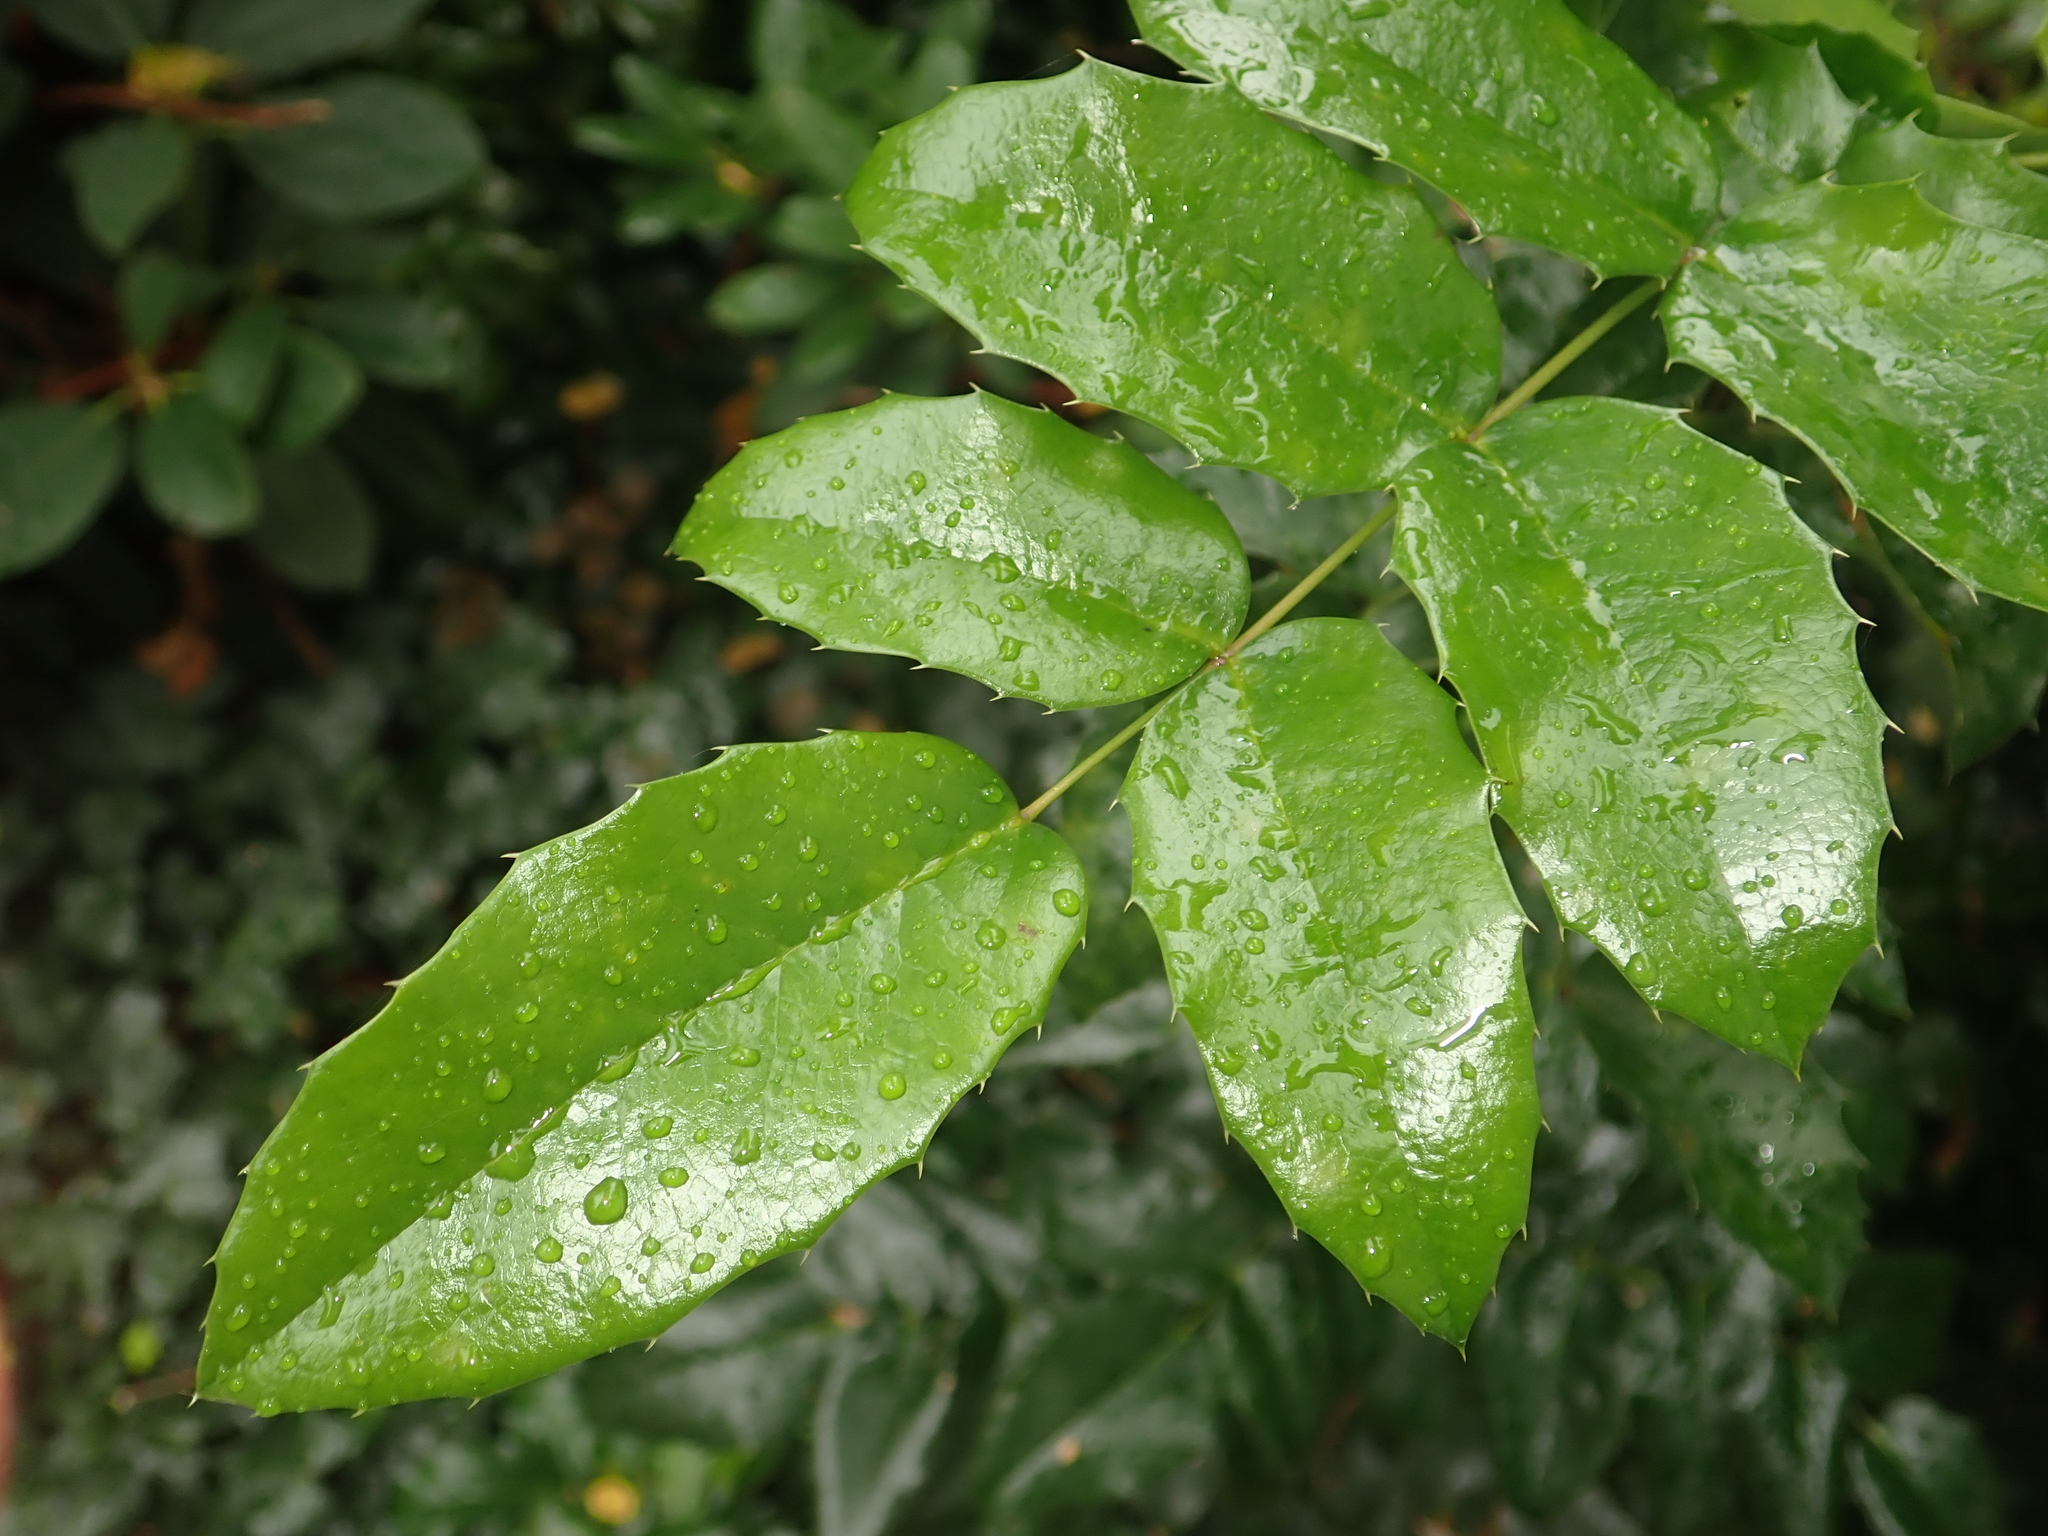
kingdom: Plantae
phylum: Tracheophyta
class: Magnoliopsida
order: Ranunculales
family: Berberidaceae
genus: Mahonia
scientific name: Mahonia aquifolium
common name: Oregon-grape
